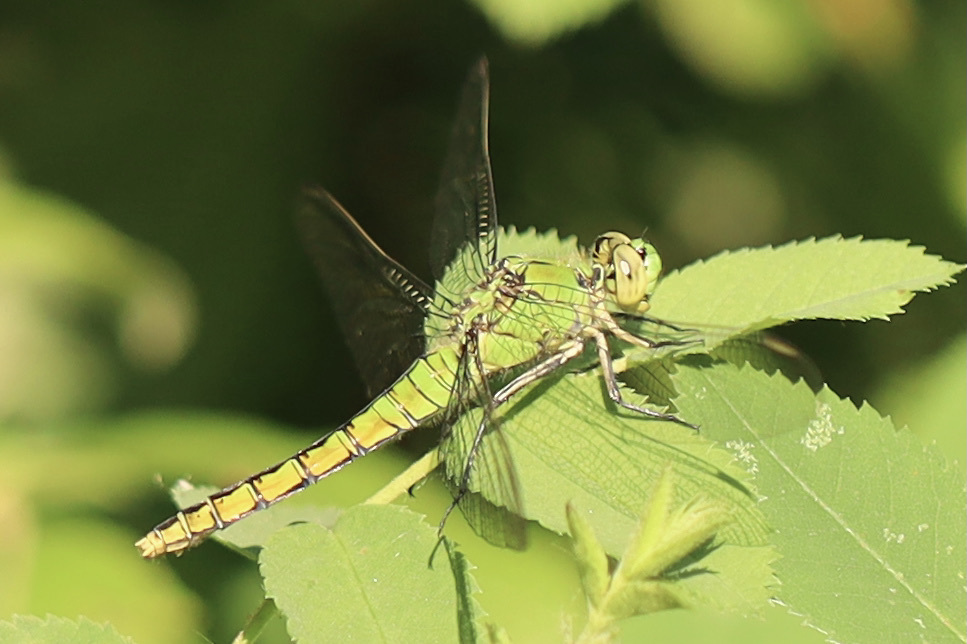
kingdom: Animalia
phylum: Arthropoda
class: Insecta
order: Odonata
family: Libellulidae
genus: Erythemis
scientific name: Erythemis collocata
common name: Western pondhawk
